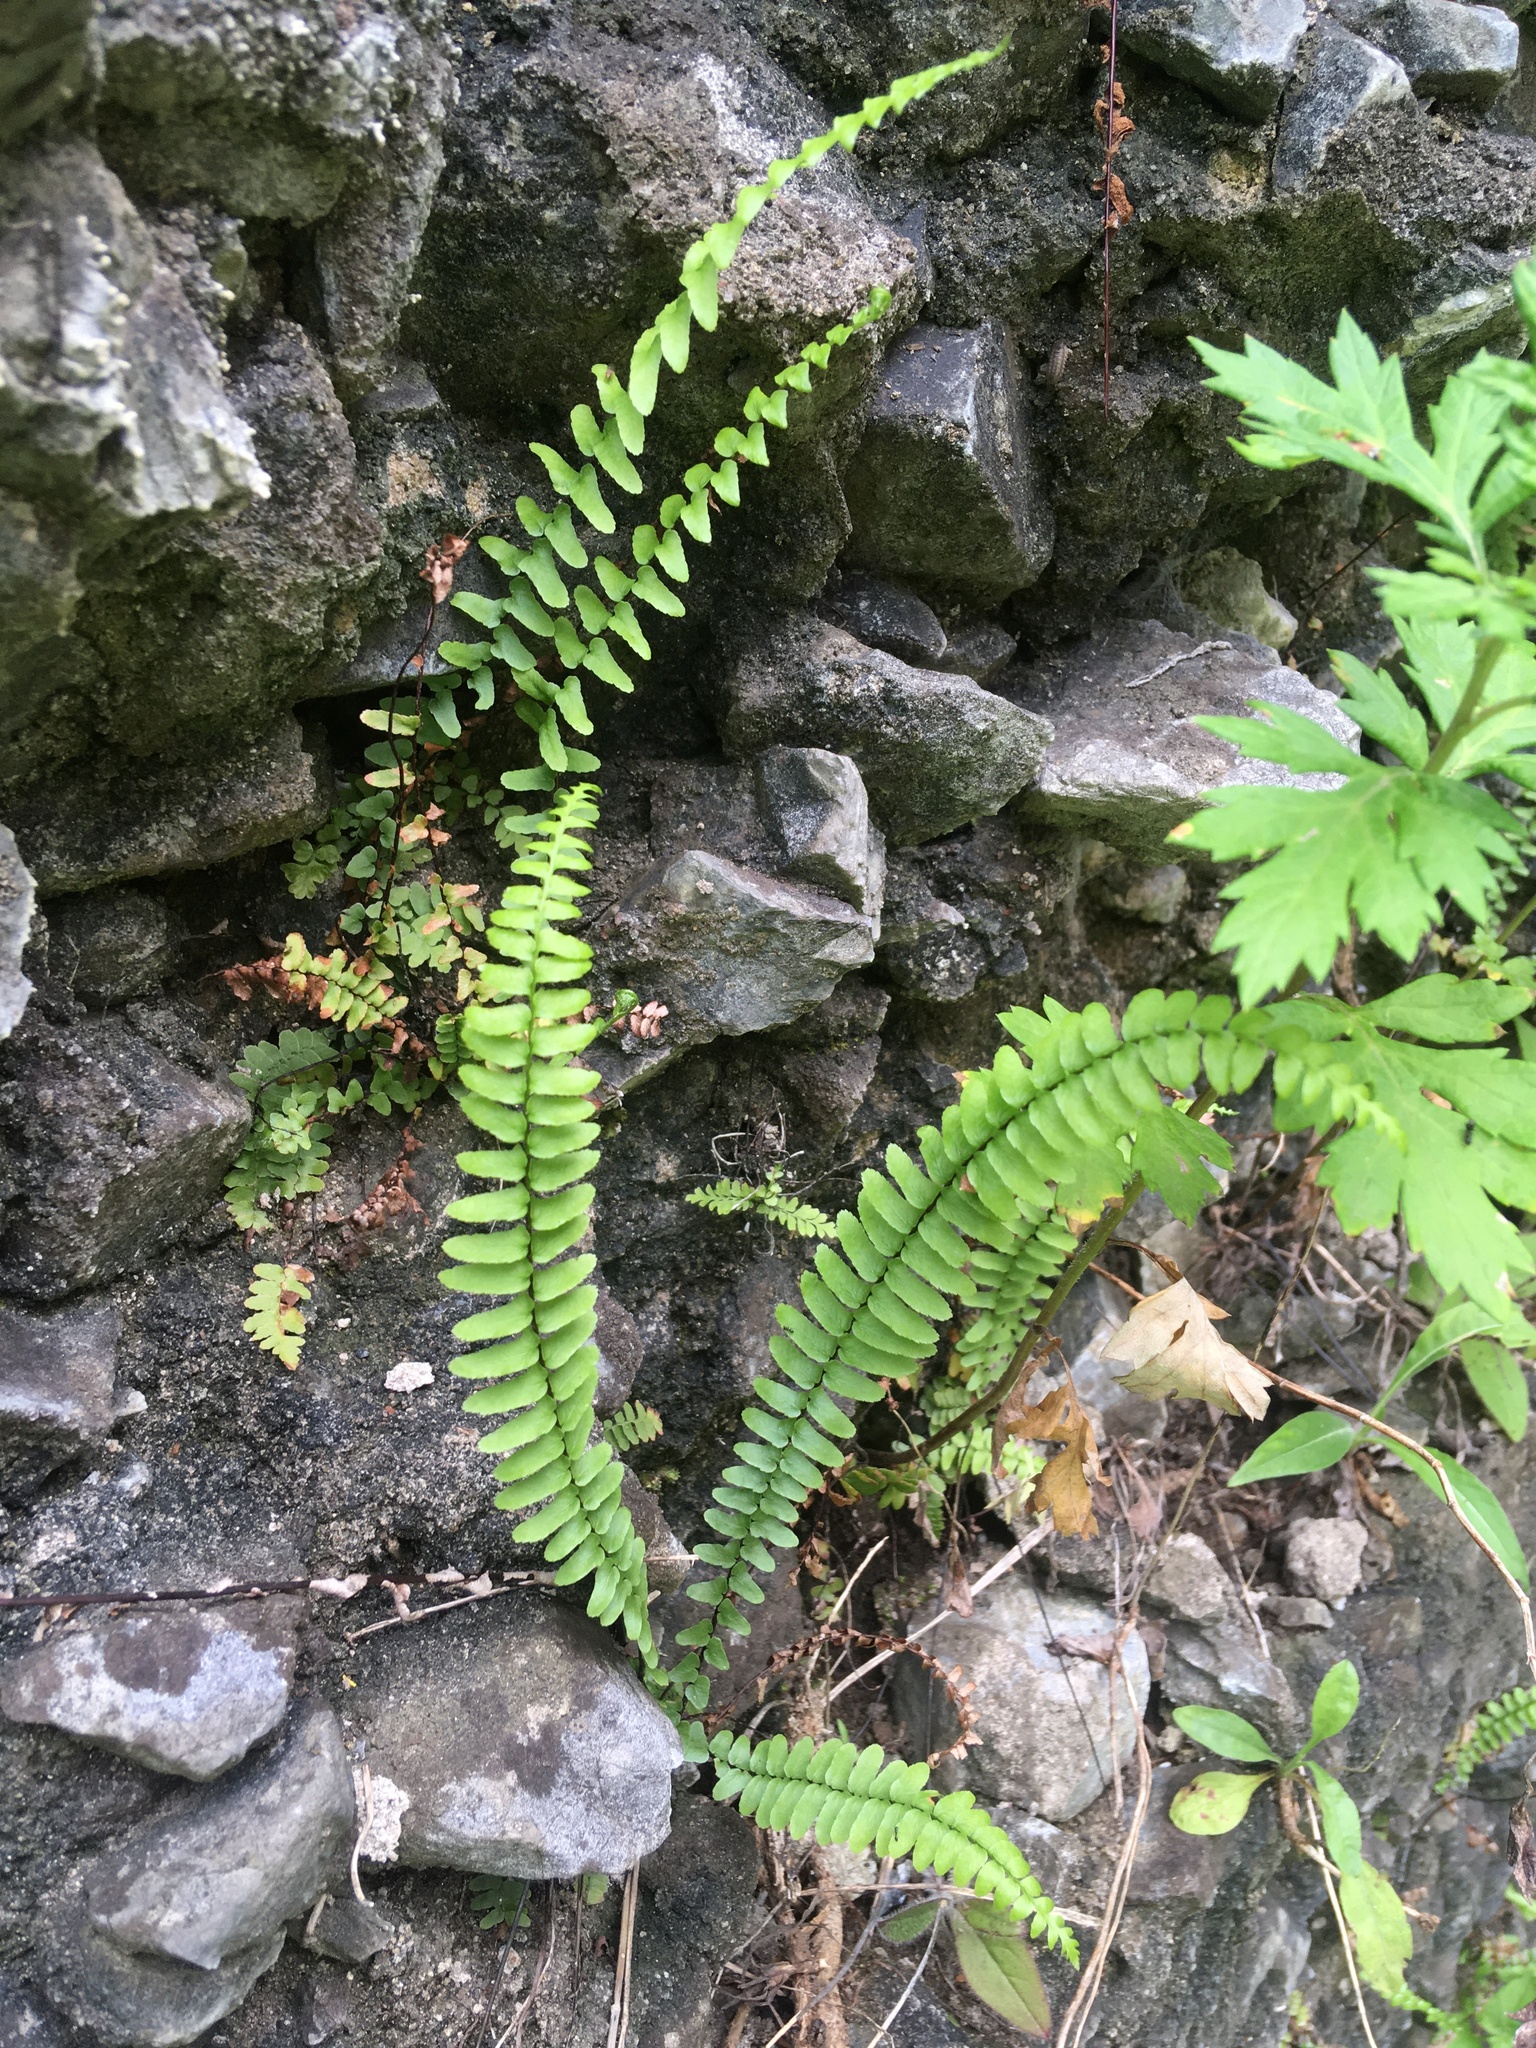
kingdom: Plantae
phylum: Tracheophyta
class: Polypodiopsida
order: Polypodiales
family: Aspleniaceae
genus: Asplenium
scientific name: Asplenium platyneuron
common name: Ebony spleenwort
